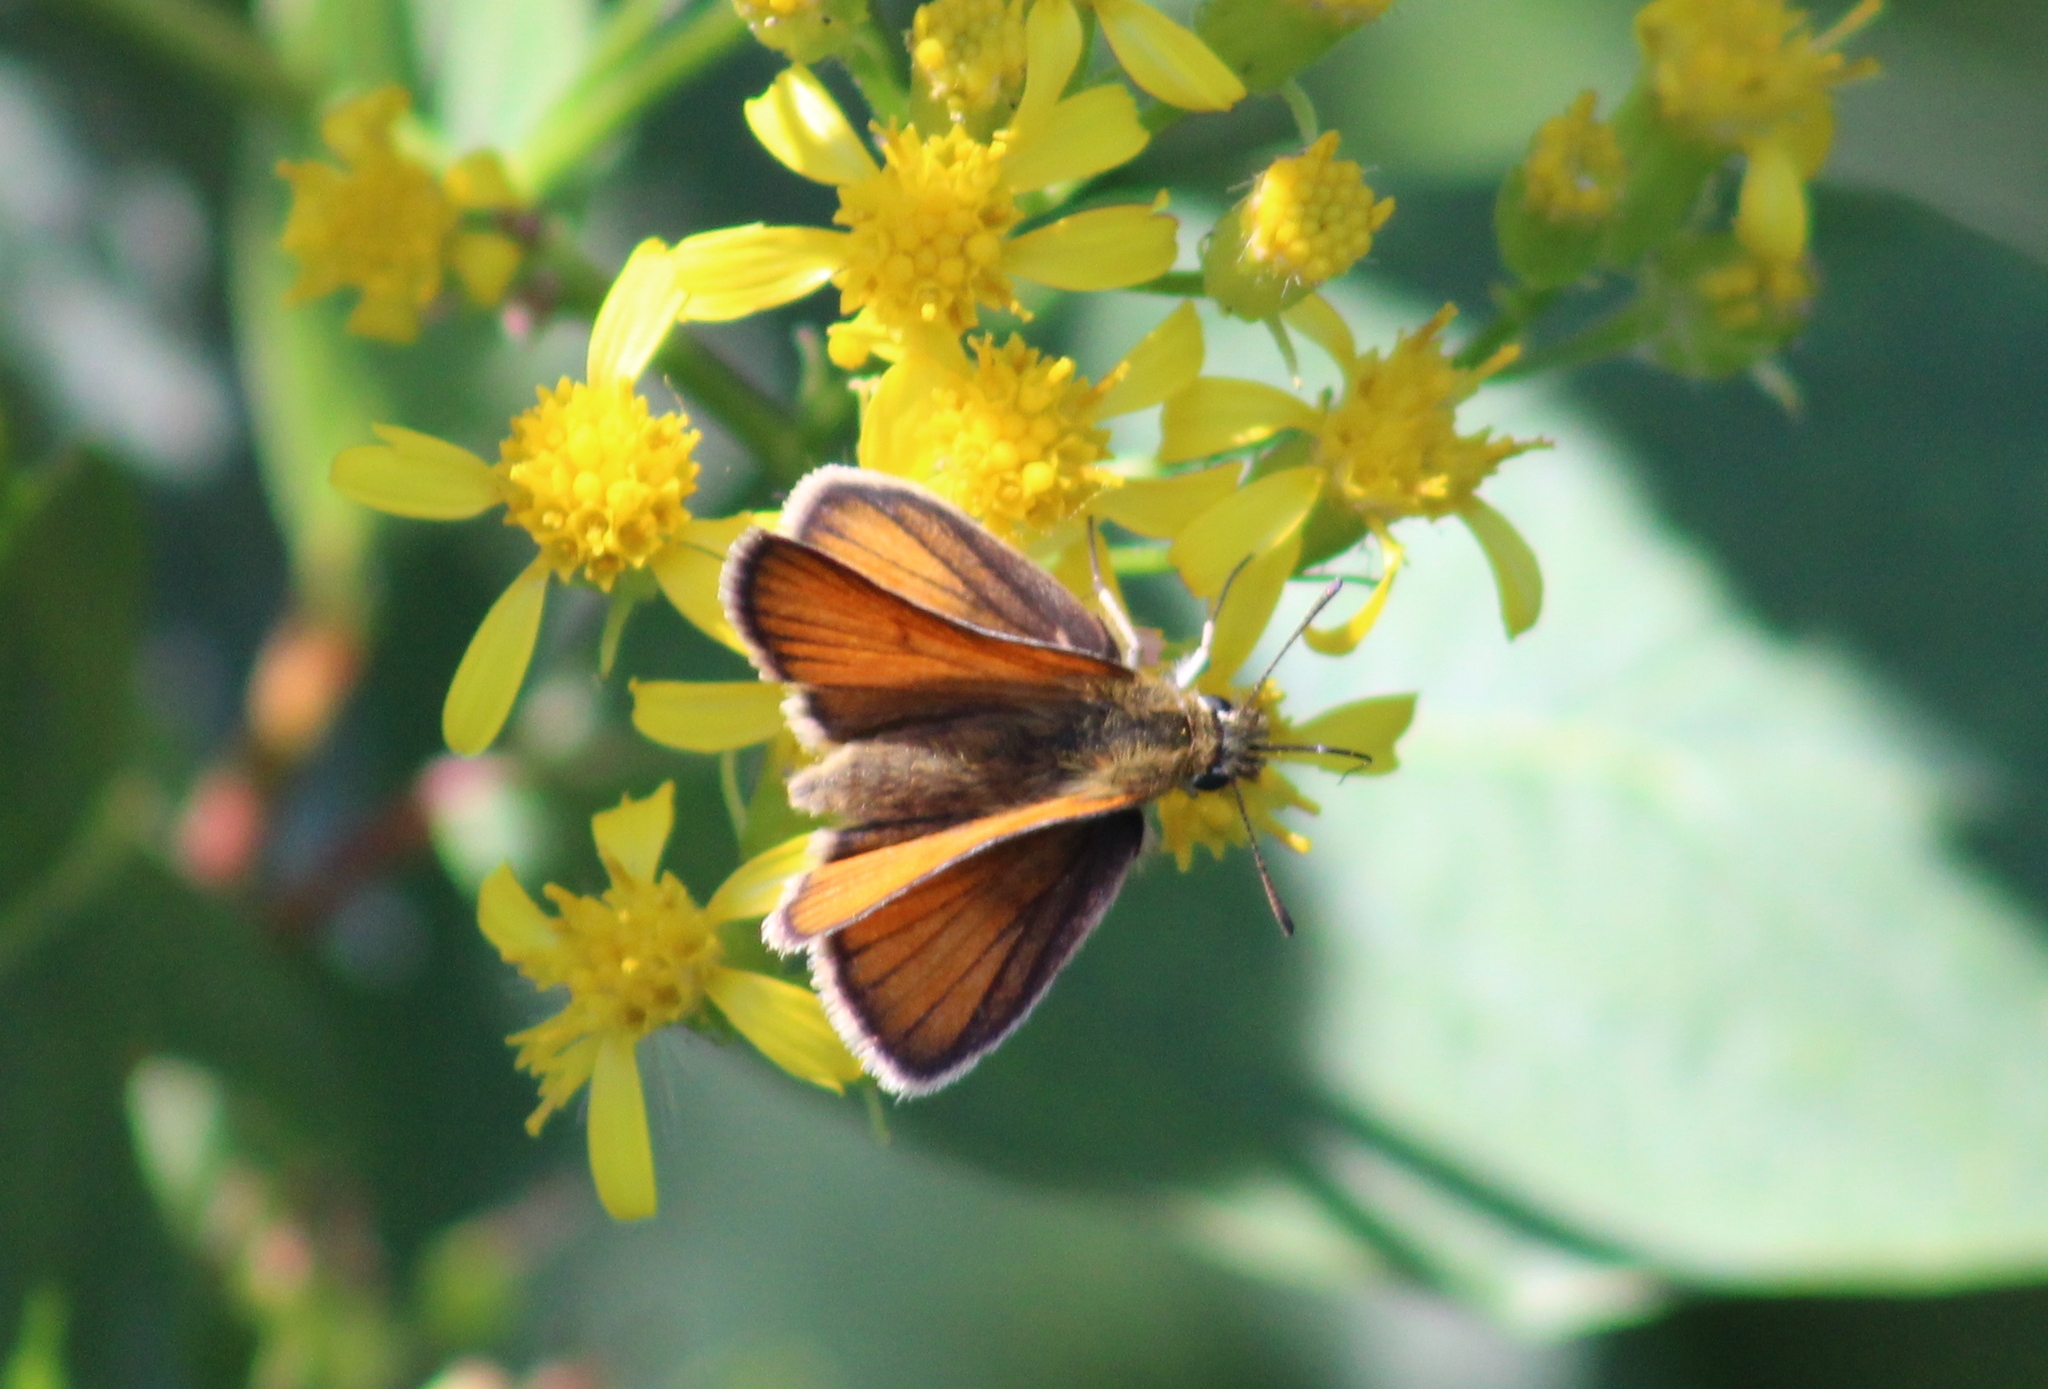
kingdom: Animalia
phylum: Arthropoda
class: Insecta
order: Lepidoptera
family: Hesperiidae
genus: Thymelicus
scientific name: Thymelicus lineola
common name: Essex skipper
